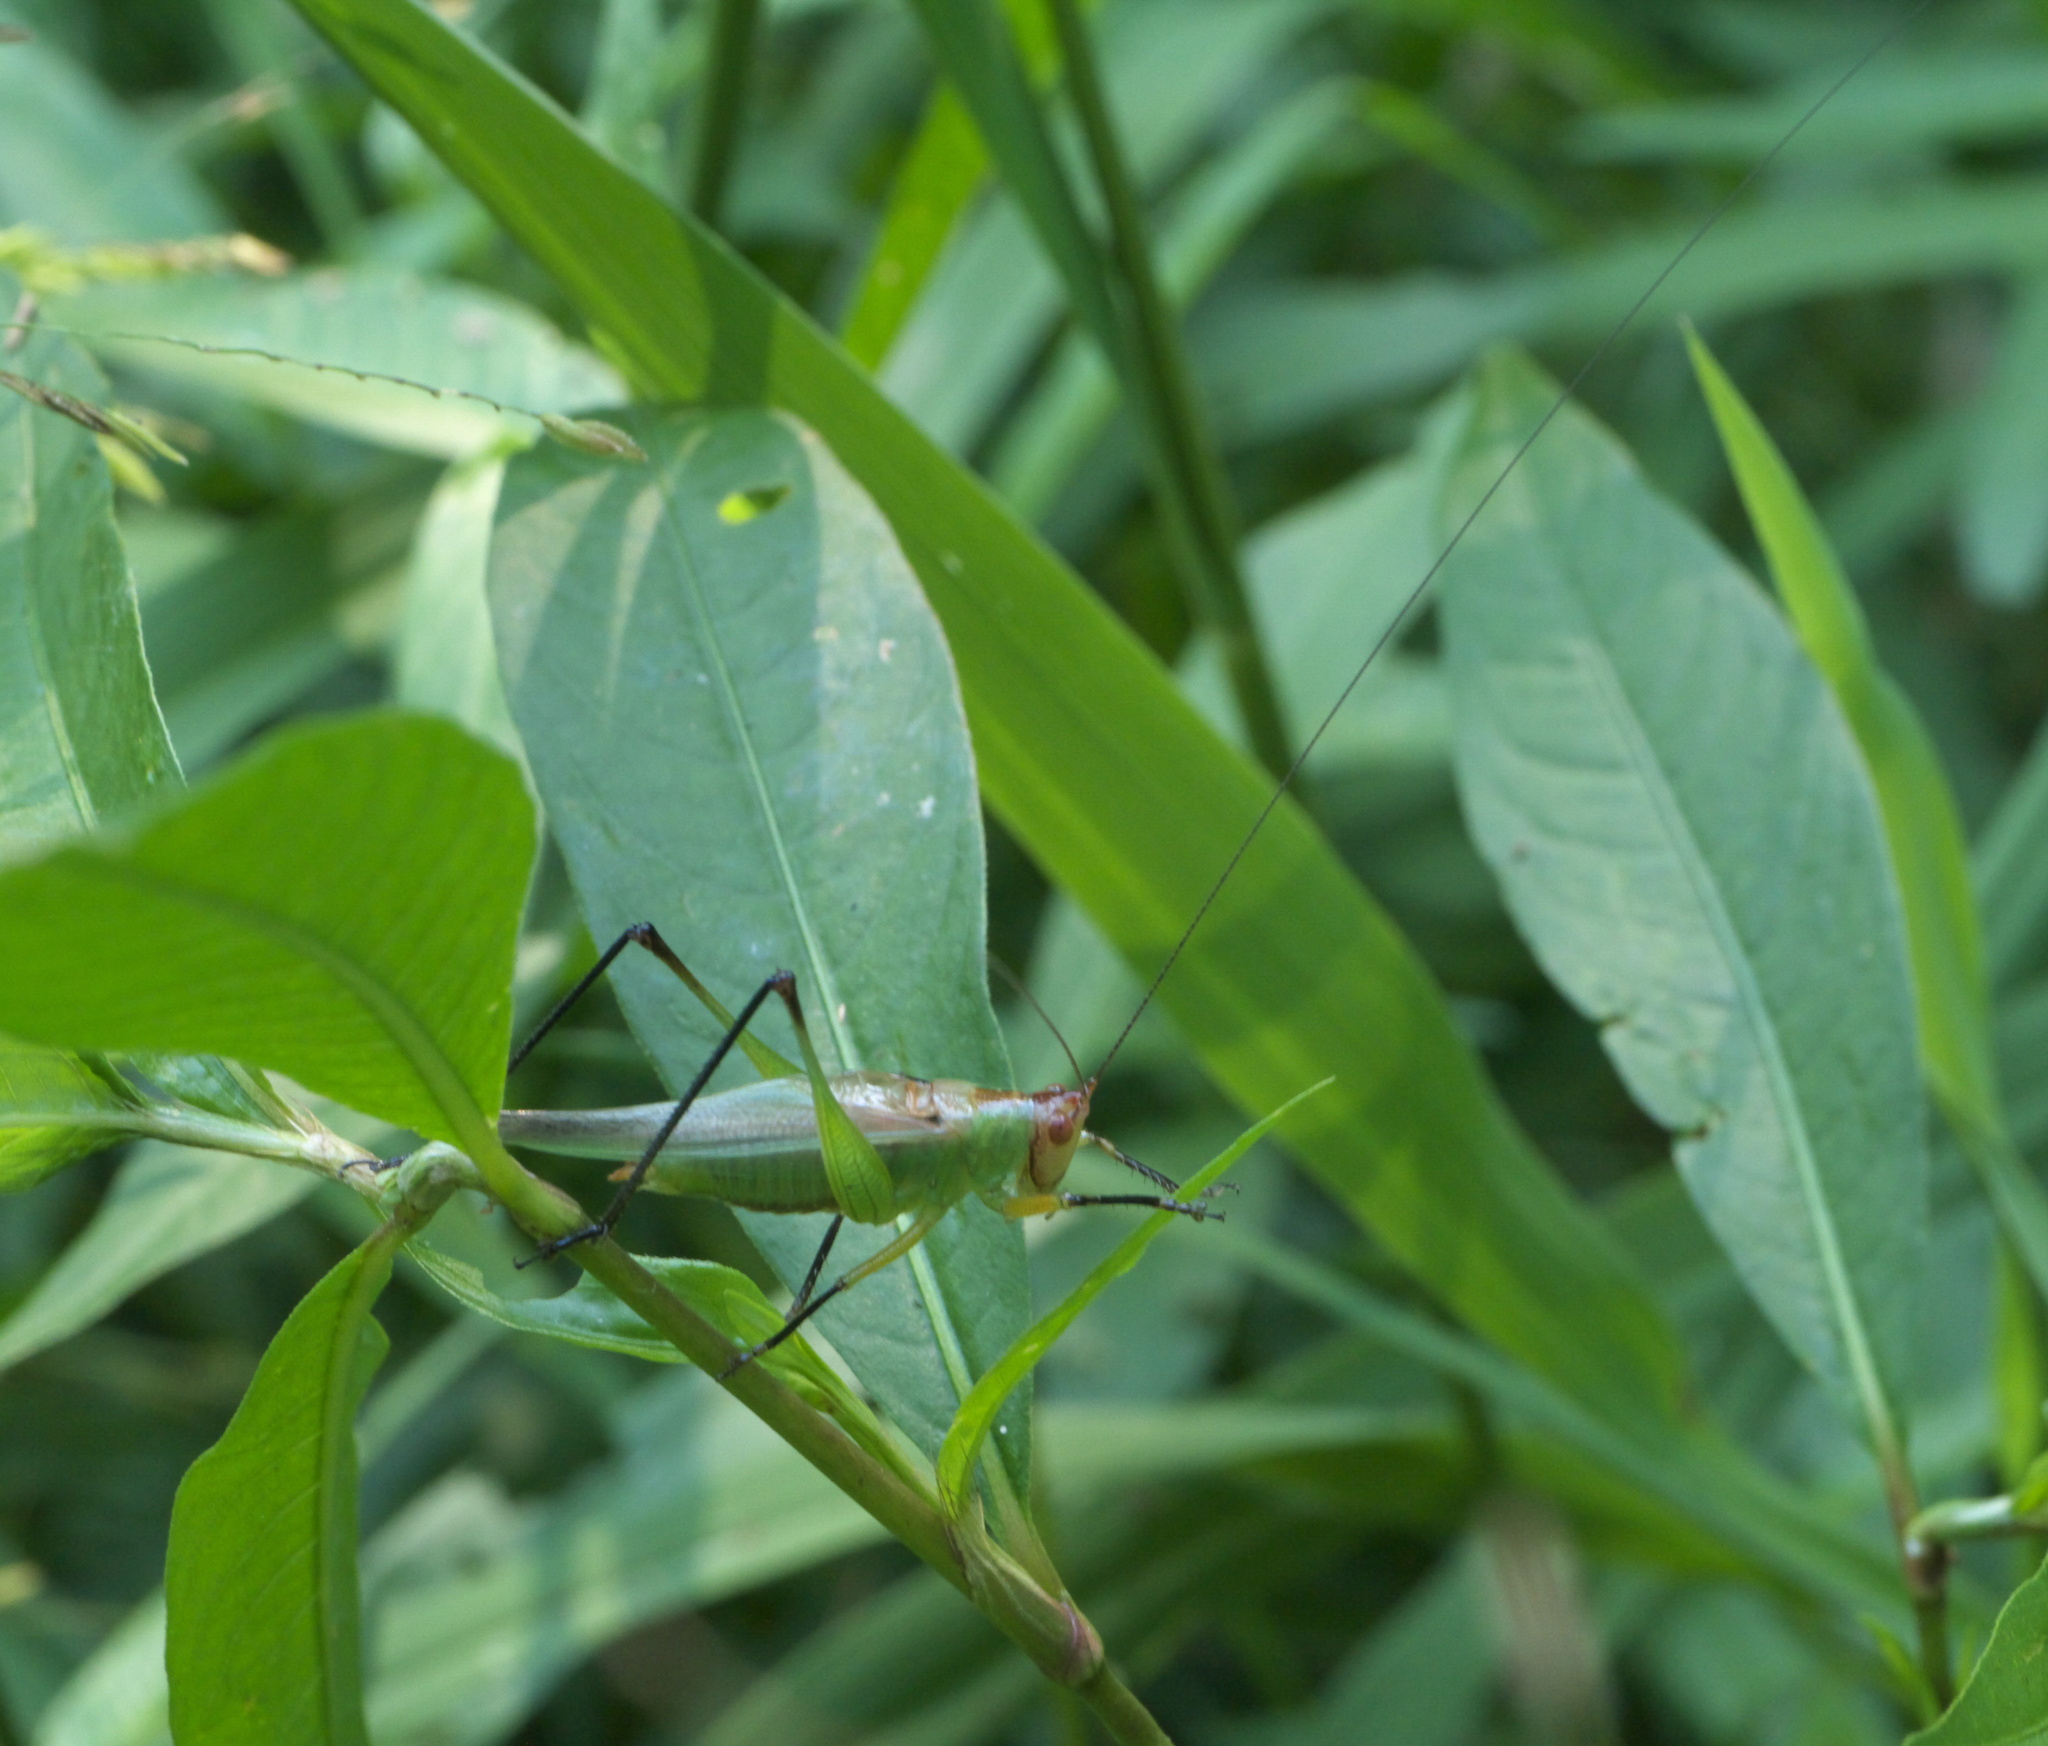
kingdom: Animalia
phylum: Arthropoda
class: Insecta
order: Orthoptera
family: Tettigoniidae
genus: Orchelimum
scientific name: Orchelimum nigripes
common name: Black-legged meadow katydid
